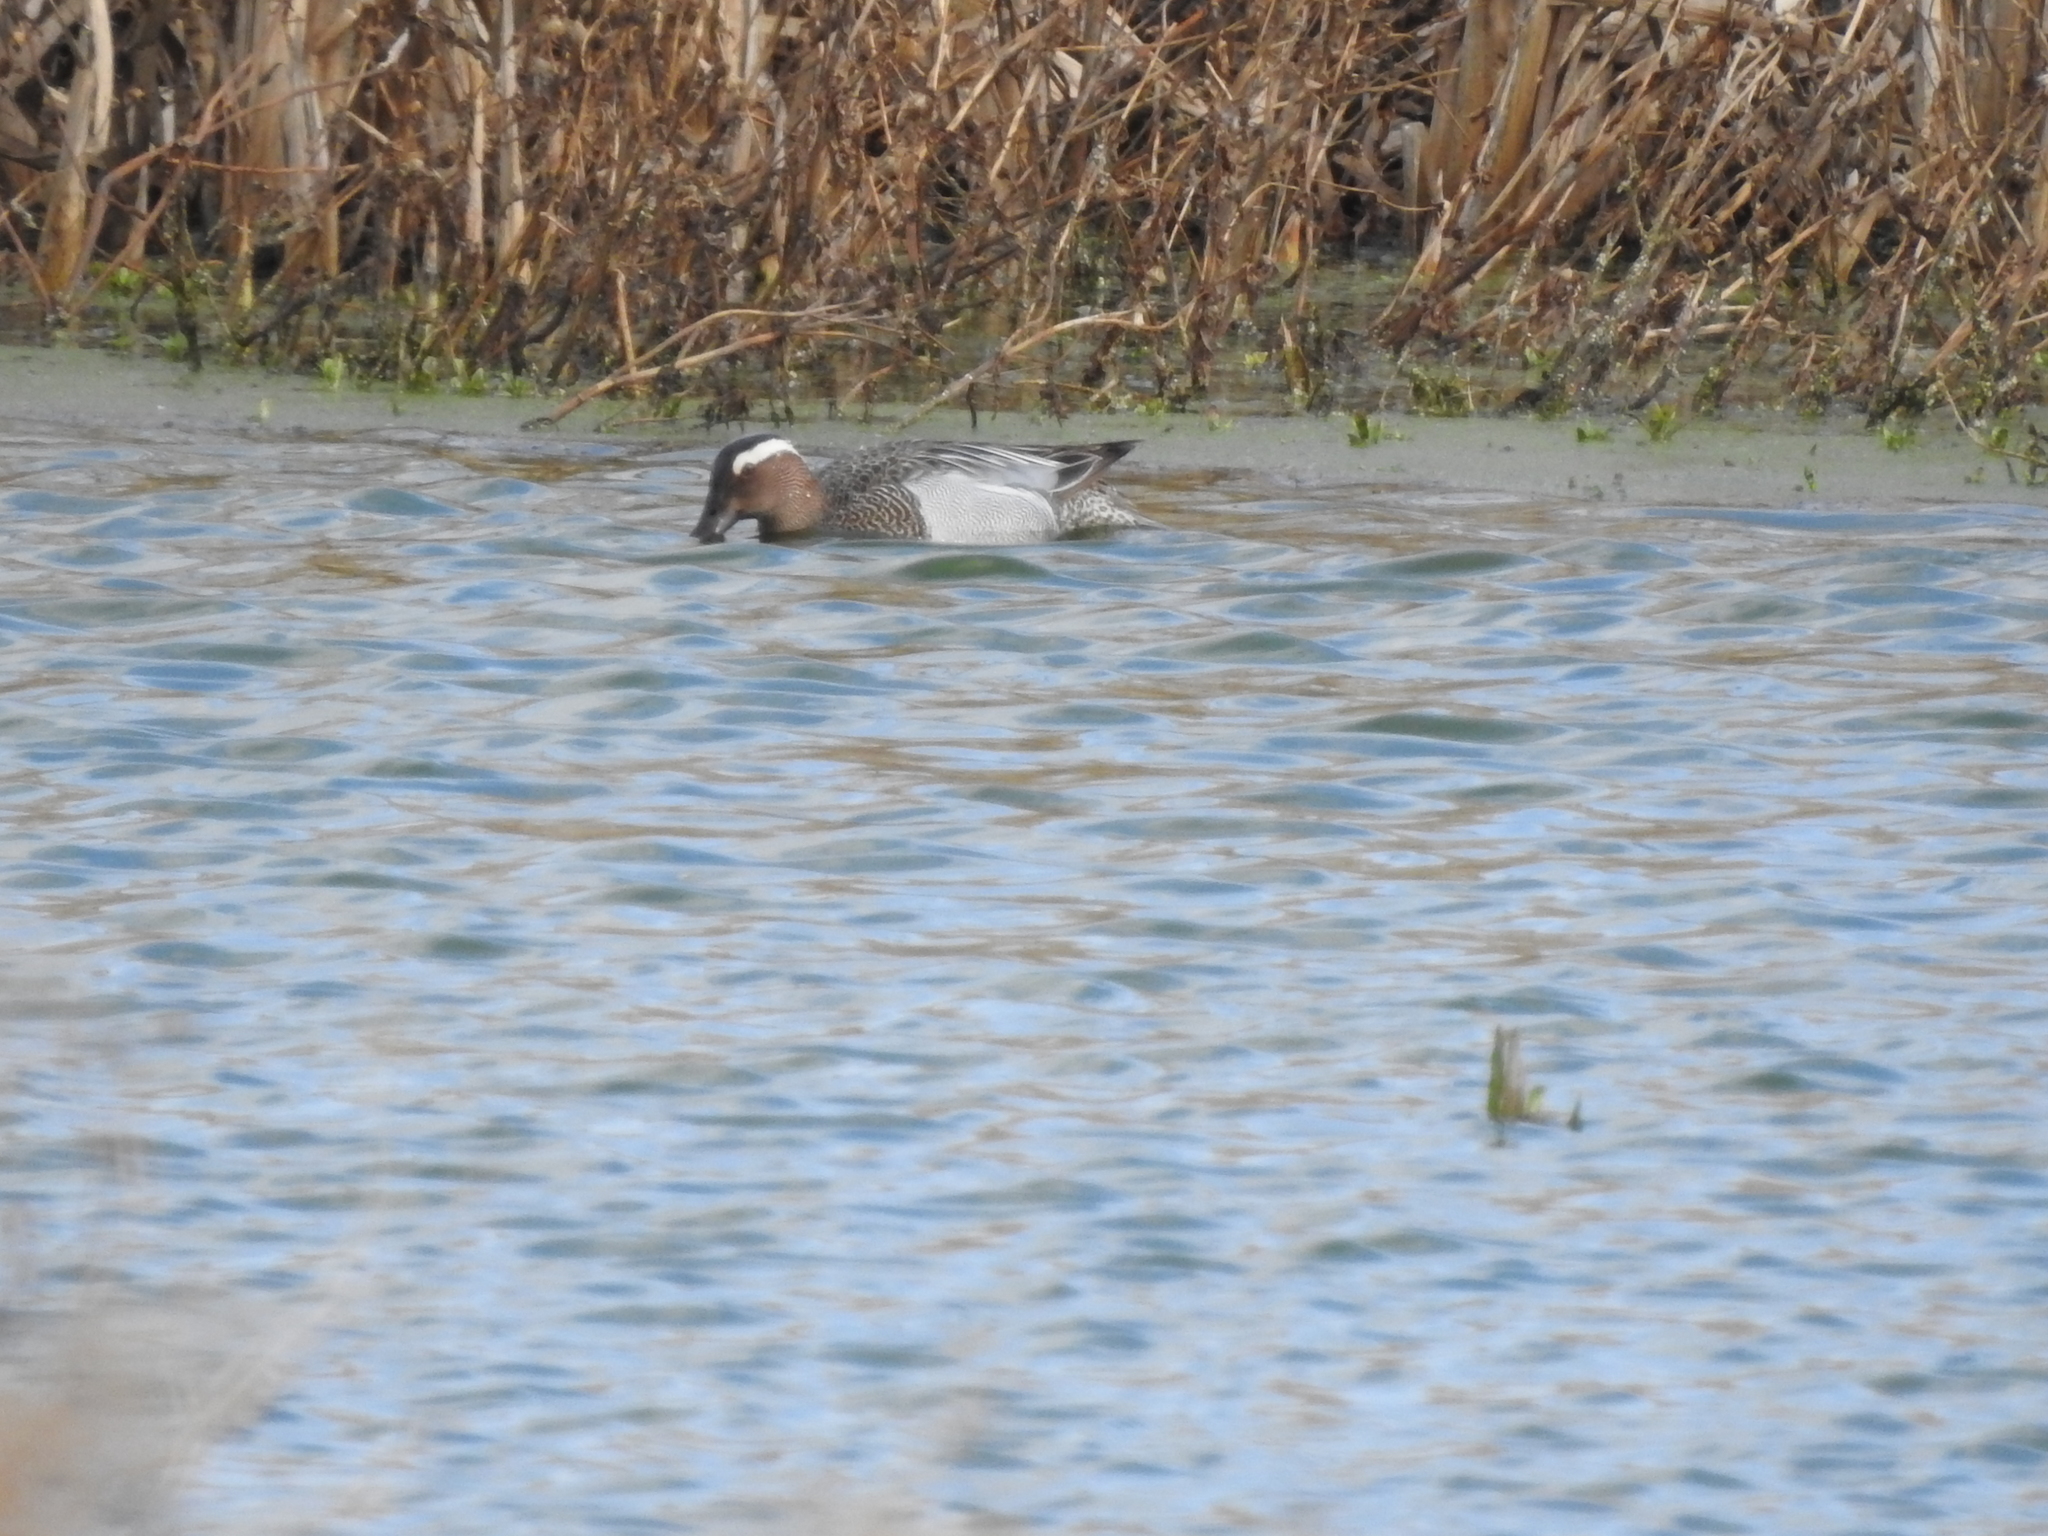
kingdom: Animalia
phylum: Chordata
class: Aves
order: Anseriformes
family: Anatidae
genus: Spatula
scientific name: Spatula querquedula
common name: Garganey
